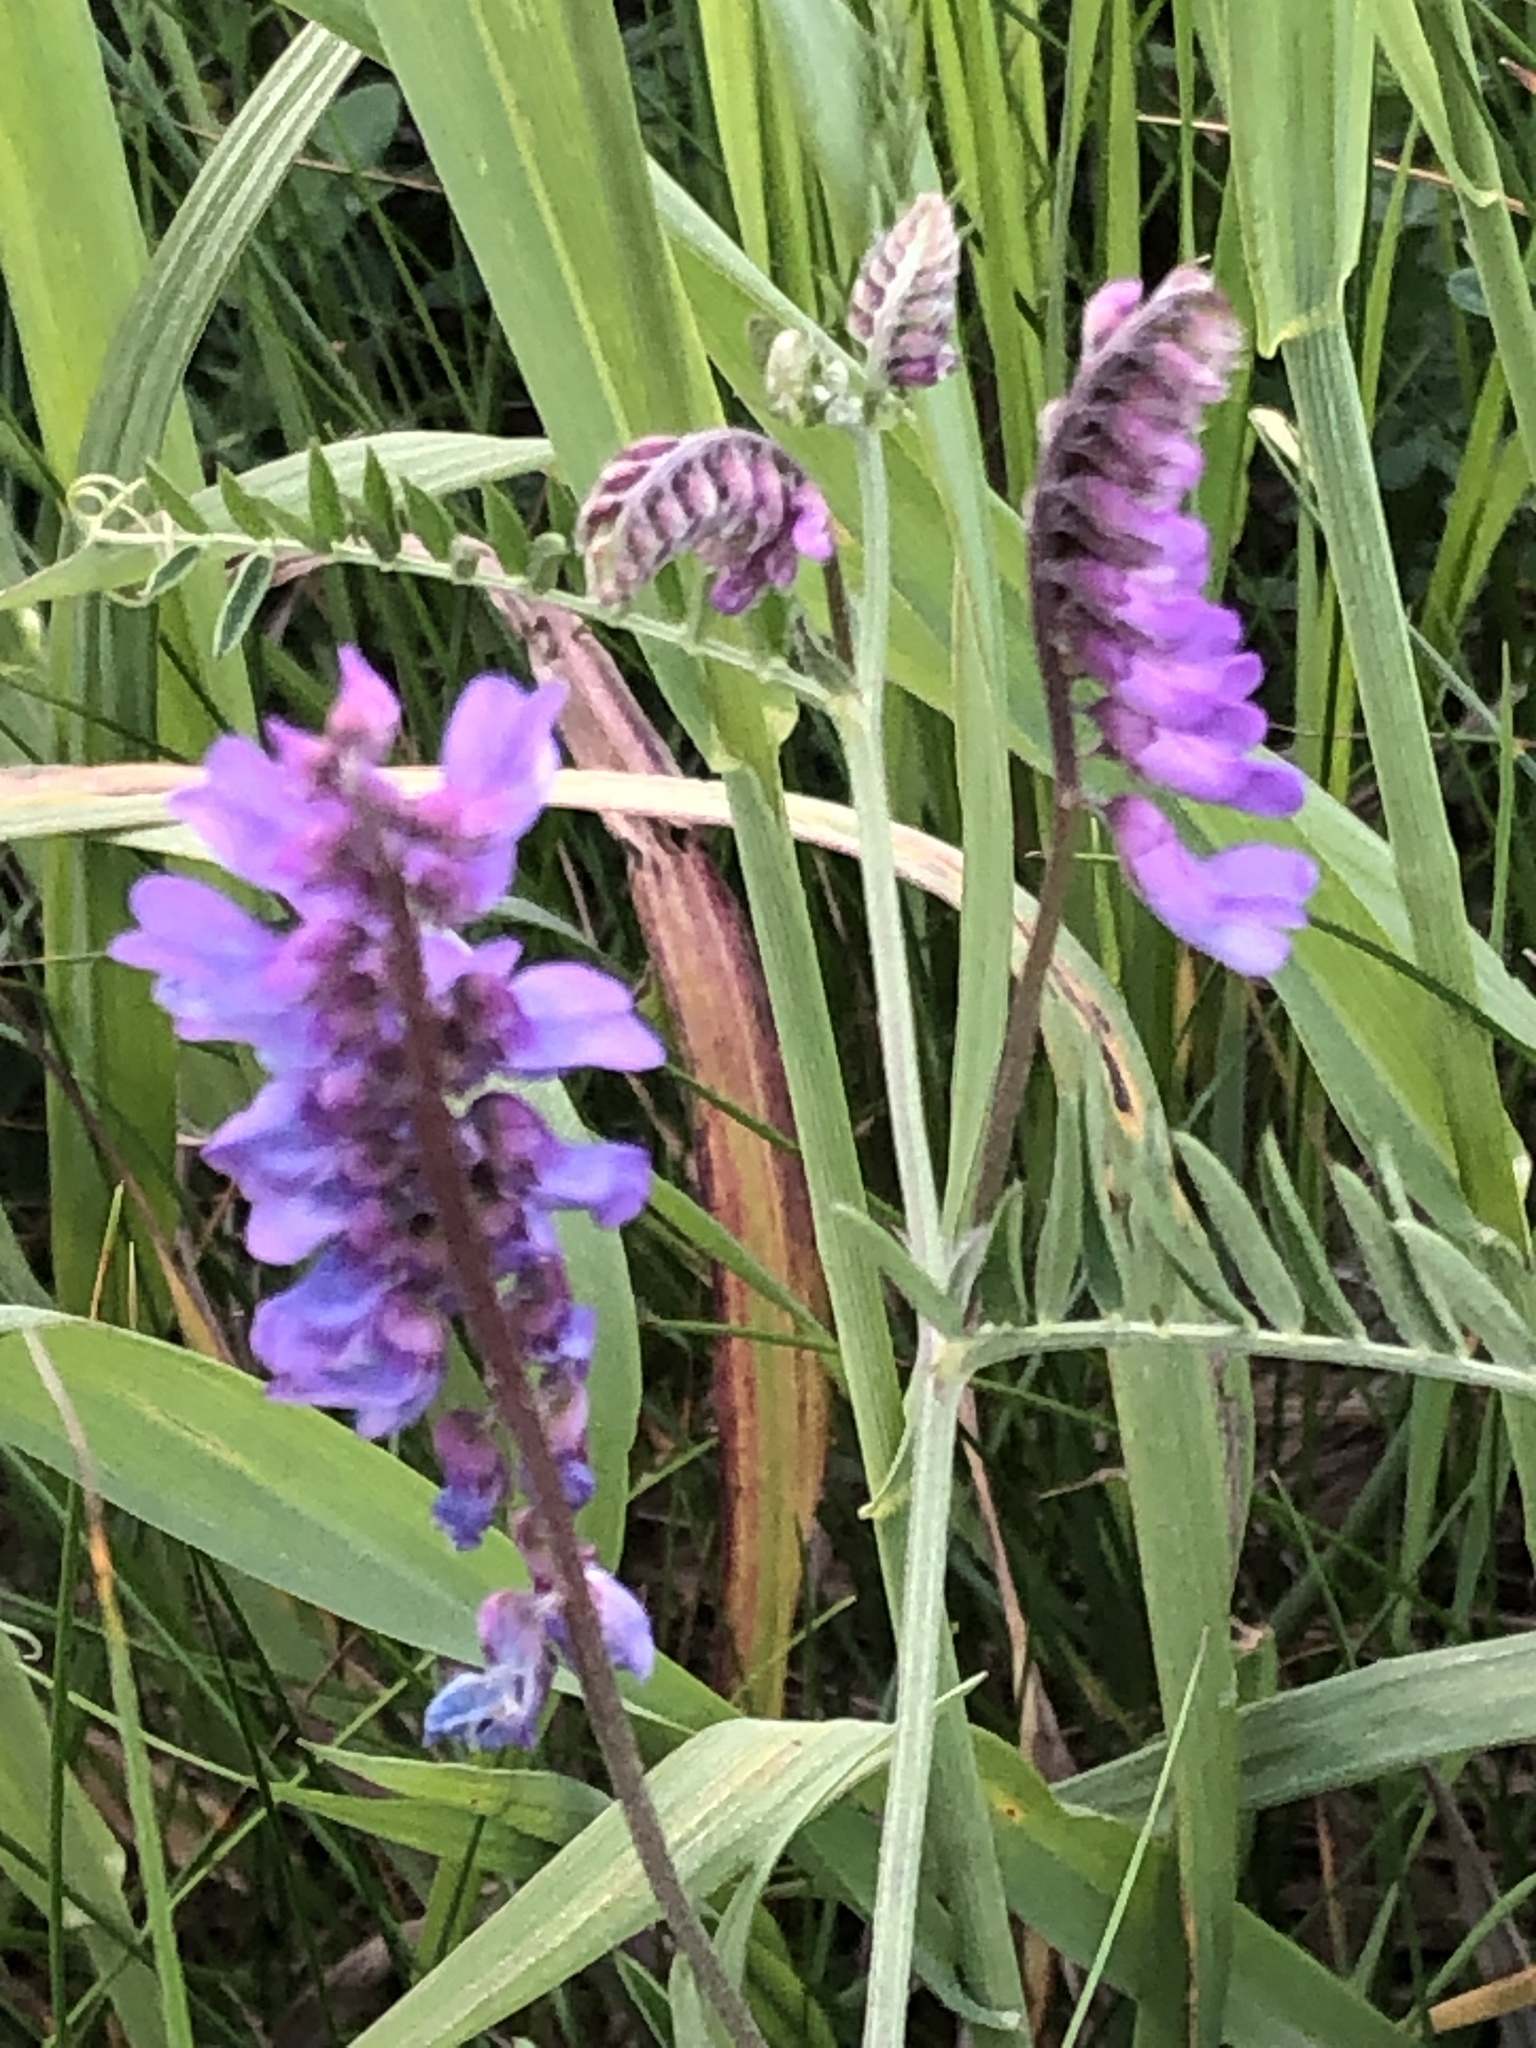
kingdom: Plantae
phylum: Tracheophyta
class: Magnoliopsida
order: Fabales
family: Fabaceae
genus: Vicia
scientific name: Vicia cracca
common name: Bird vetch
